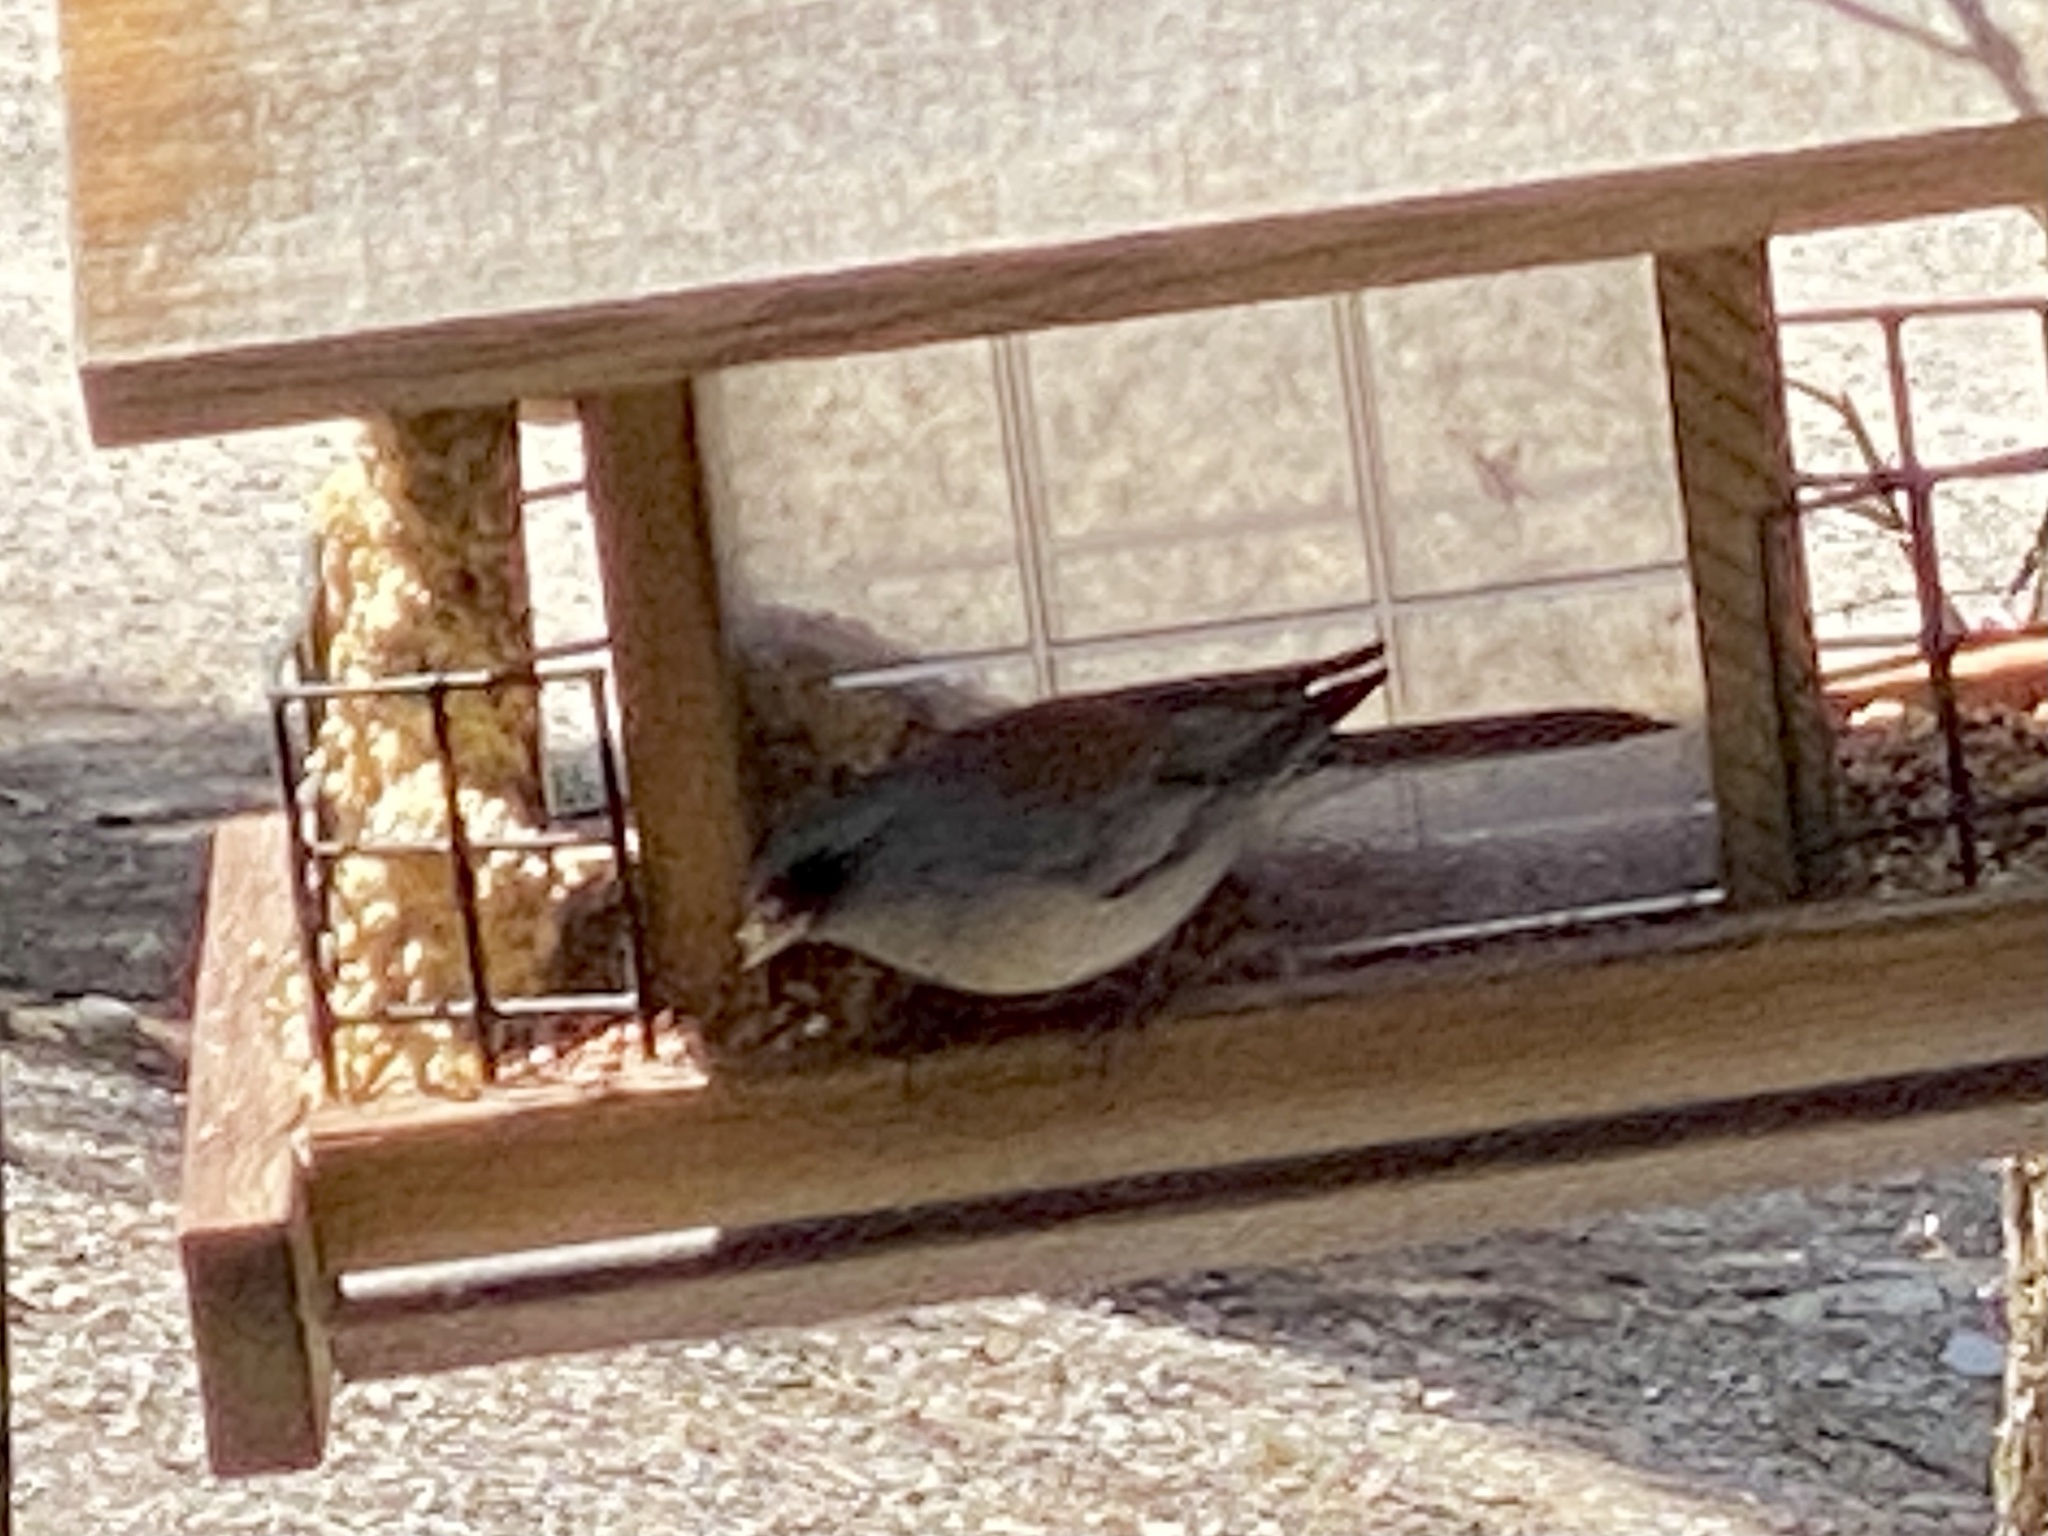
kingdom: Animalia
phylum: Chordata
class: Aves
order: Passeriformes
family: Passerellidae
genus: Junco
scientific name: Junco hyemalis
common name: Dark-eyed junco
